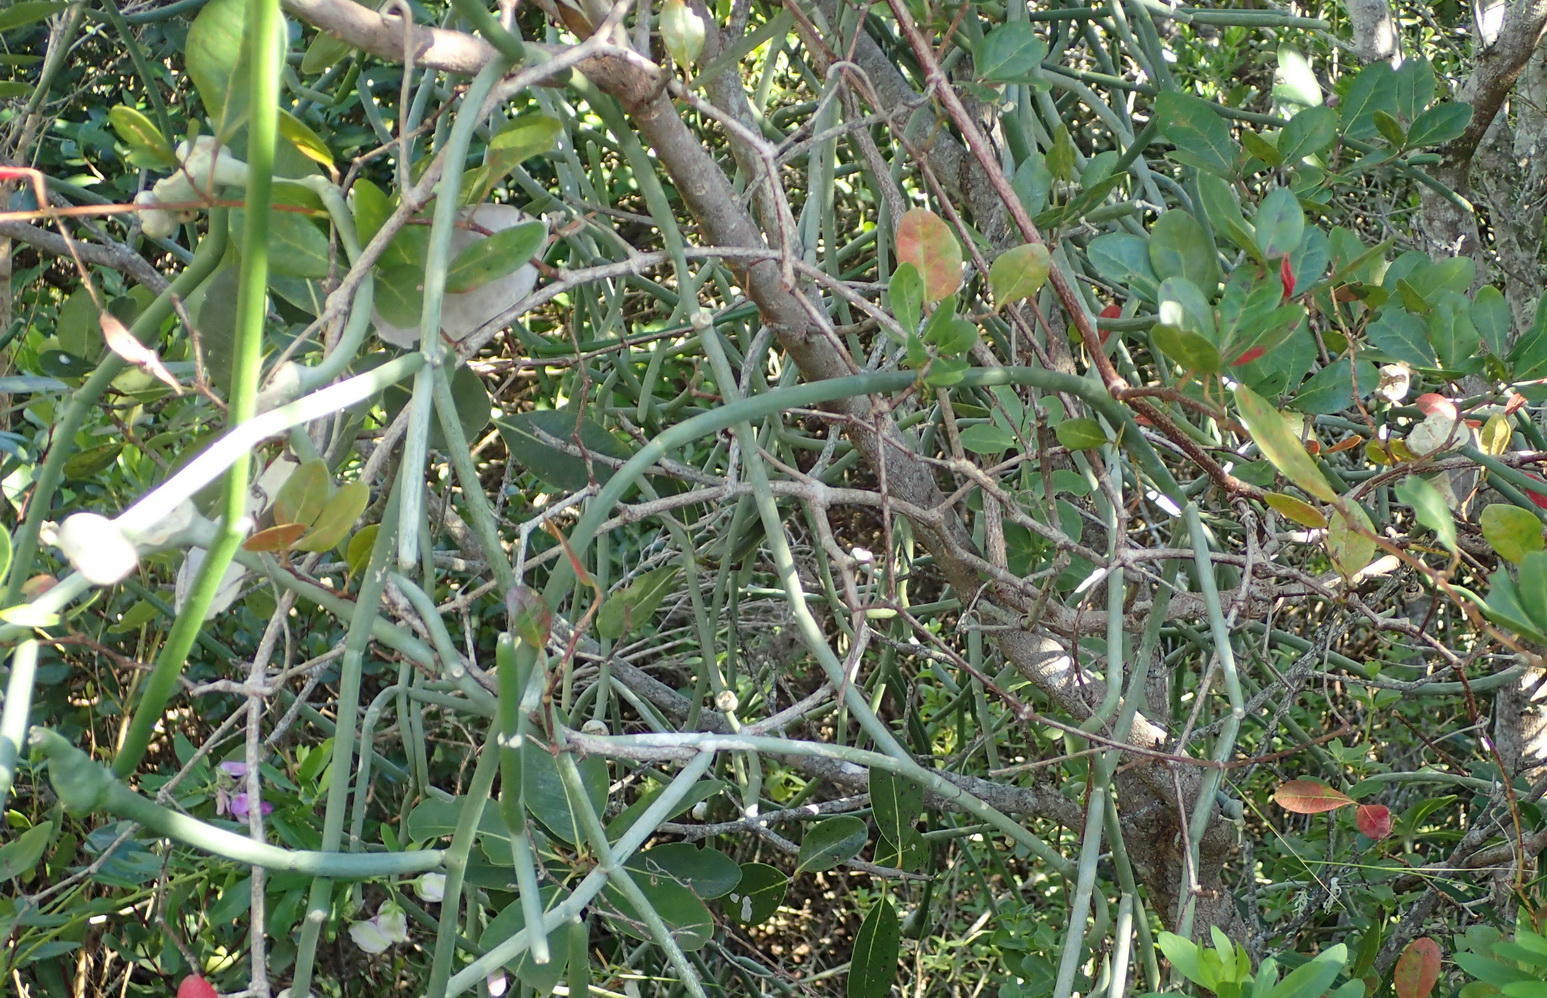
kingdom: Plantae
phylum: Tracheophyta
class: Magnoliopsida
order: Gentianales
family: Apocynaceae
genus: Cynanchum
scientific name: Cynanchum viminale
